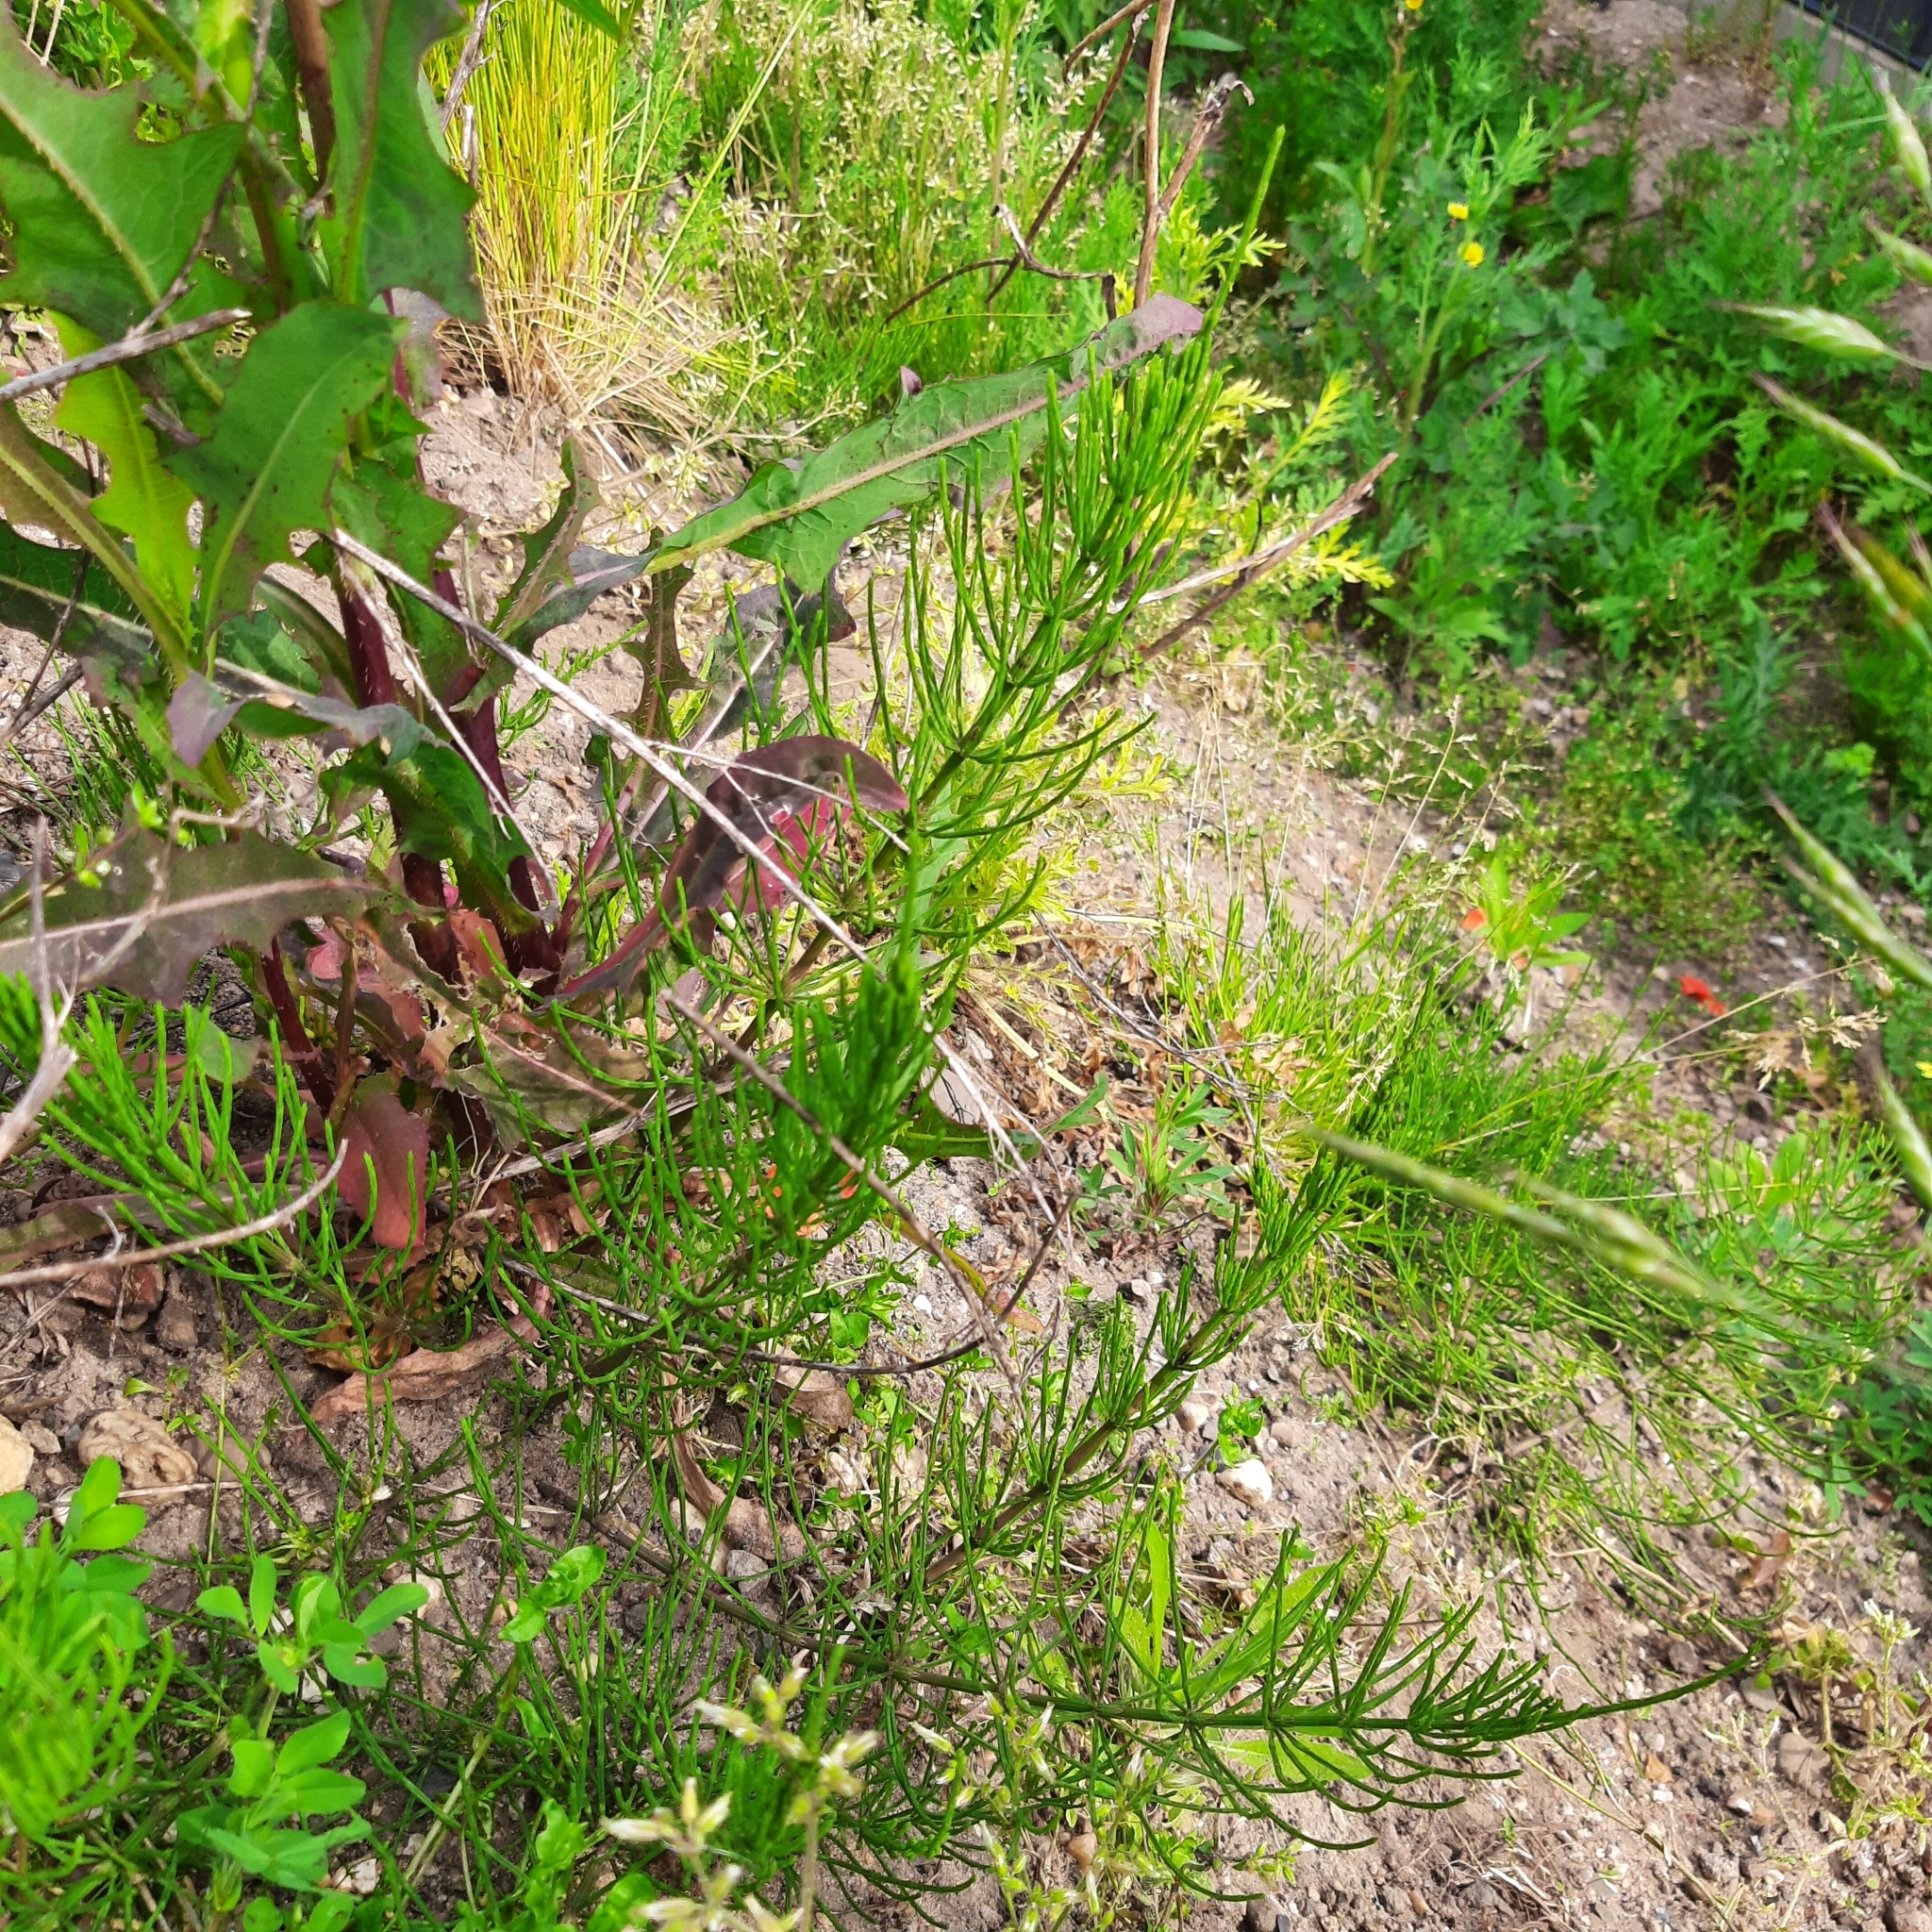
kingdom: Plantae
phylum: Tracheophyta
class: Polypodiopsida
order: Equisetales
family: Equisetaceae
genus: Equisetum
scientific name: Equisetum arvense
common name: Field horsetail
